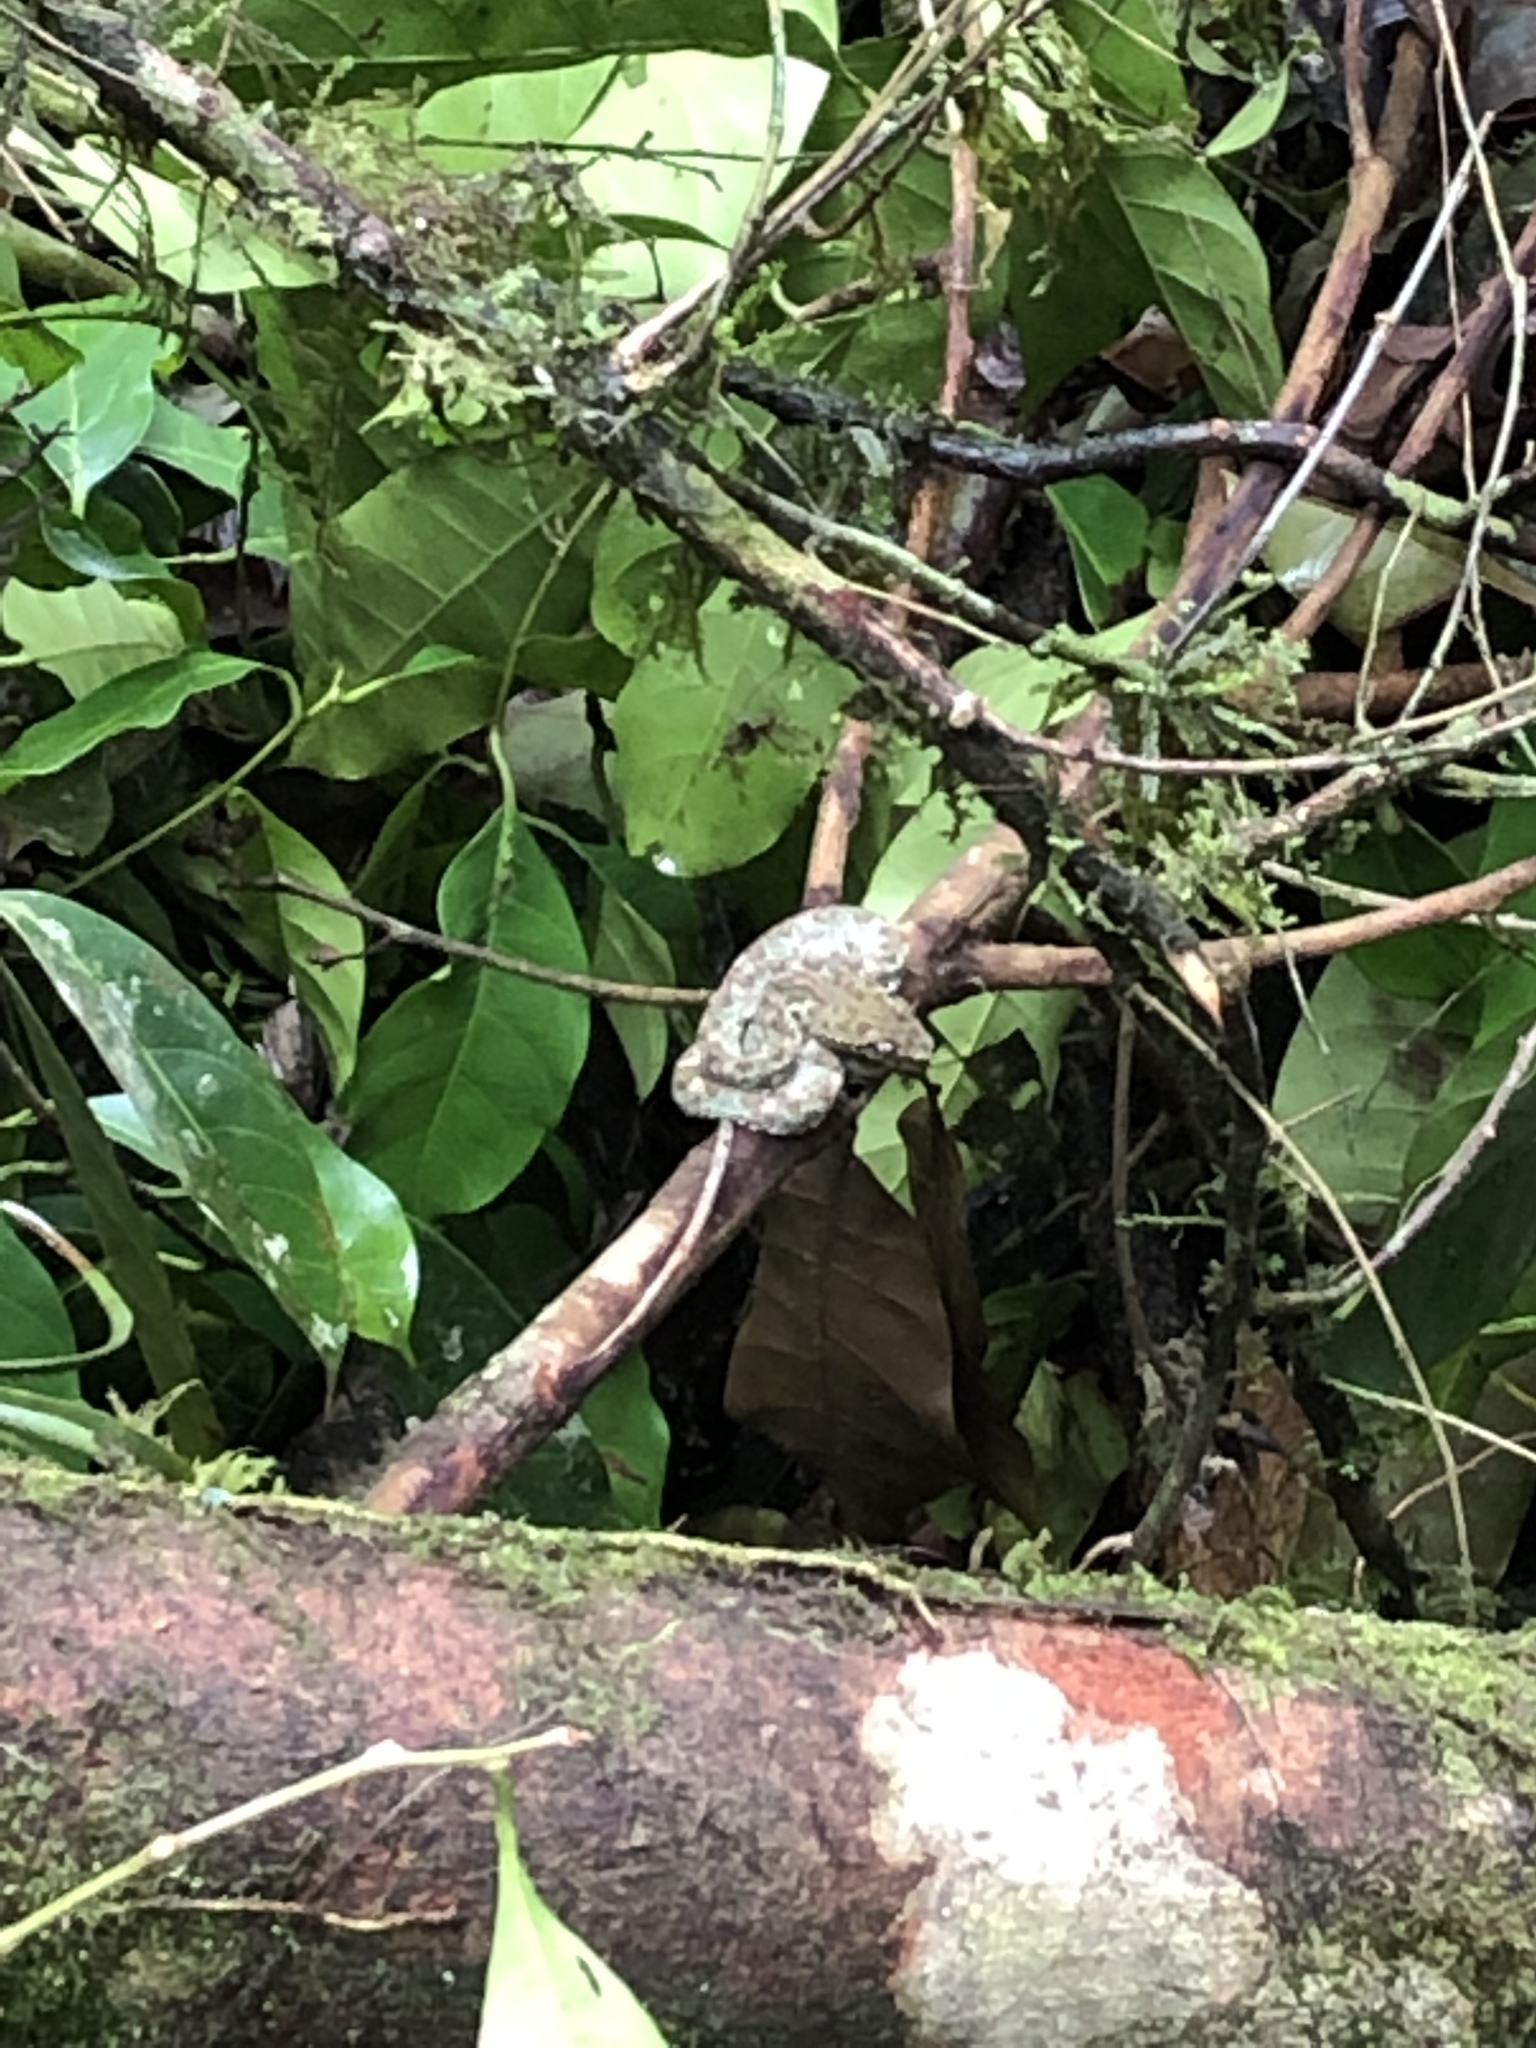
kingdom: Animalia
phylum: Chordata
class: Squamata
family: Viperidae
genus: Bothriechis
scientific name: Bothriechis schlegelii
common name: Eyelash viper
